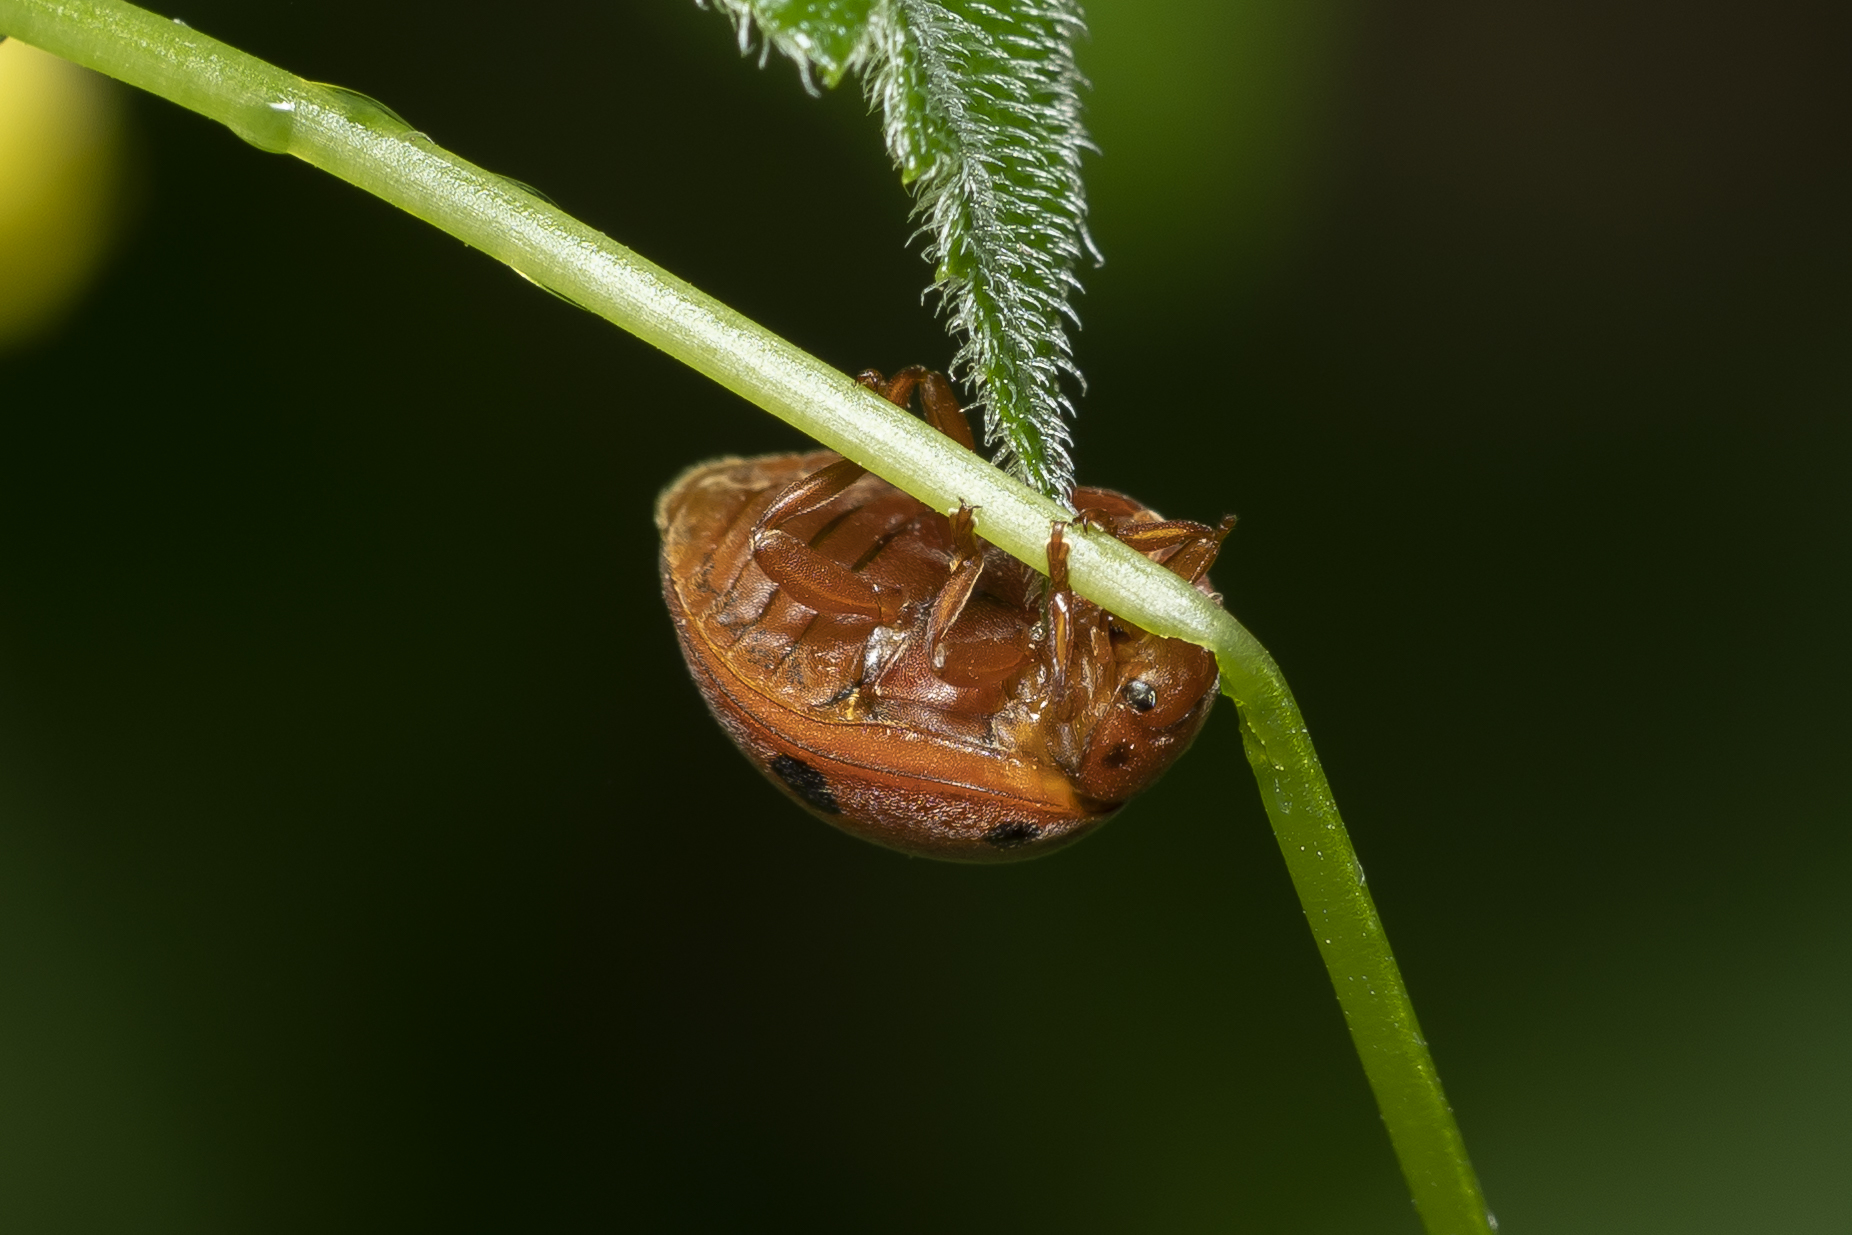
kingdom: Animalia
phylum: Arthropoda
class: Insecta
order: Coleoptera
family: Coccinellidae
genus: Henosepilachna
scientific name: Henosepilachna argus
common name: Bryony ladybird
